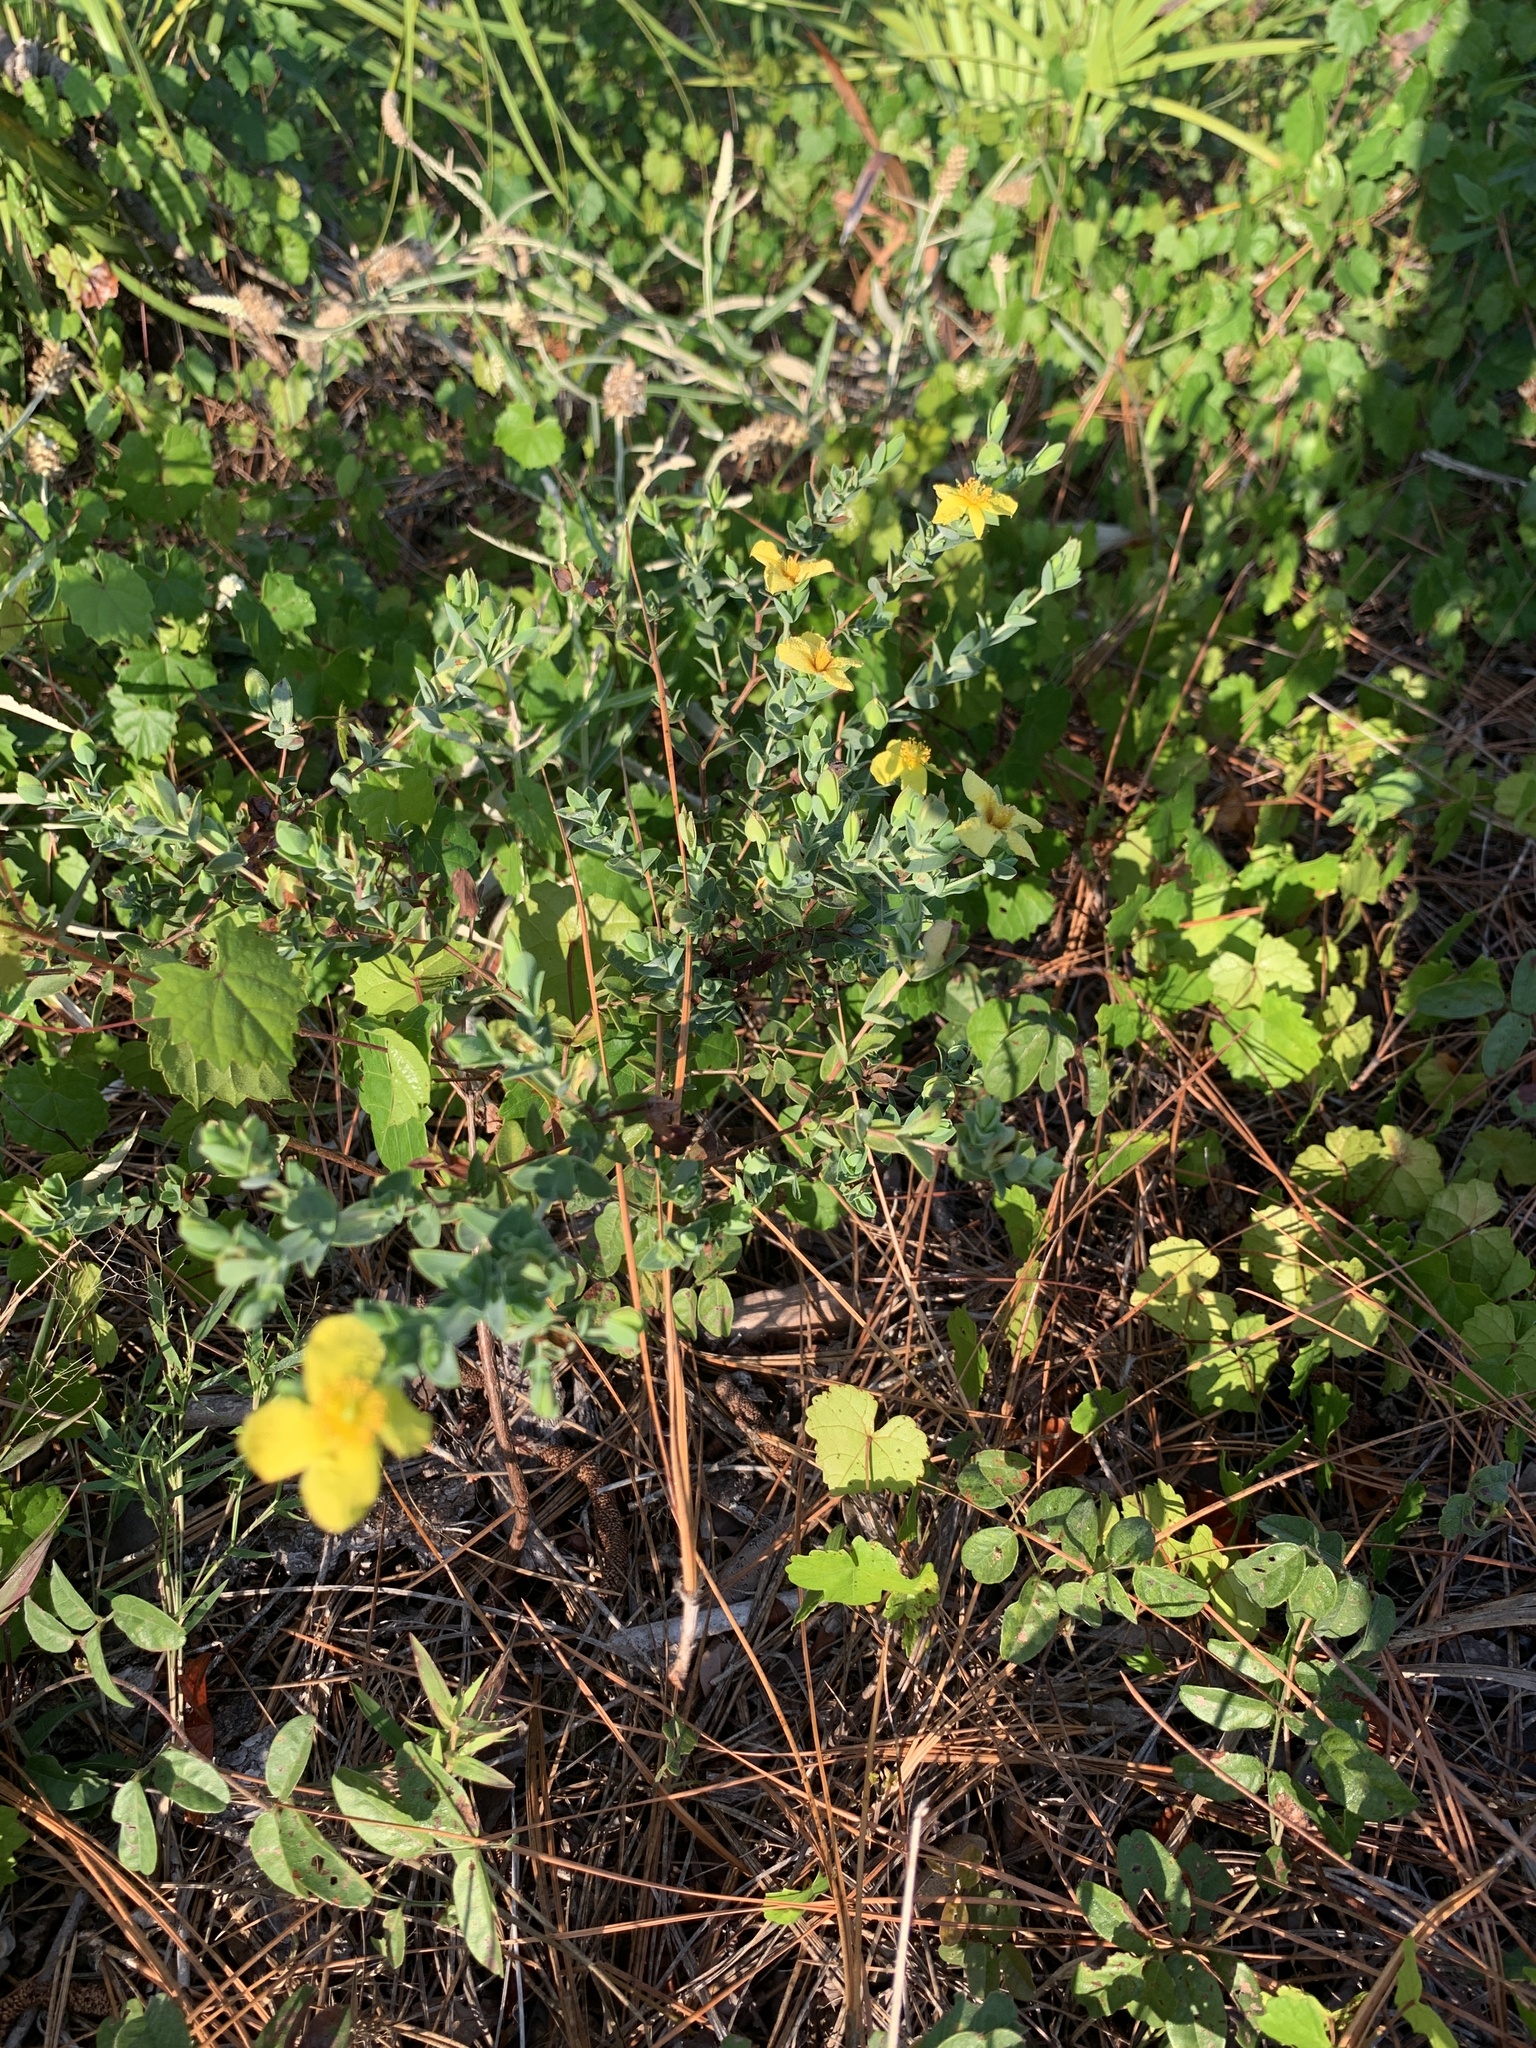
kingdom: Plantae
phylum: Tracheophyta
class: Magnoliopsida
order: Malpighiales
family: Hypericaceae
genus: Hypericum
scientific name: Hypericum tetrapetalum
